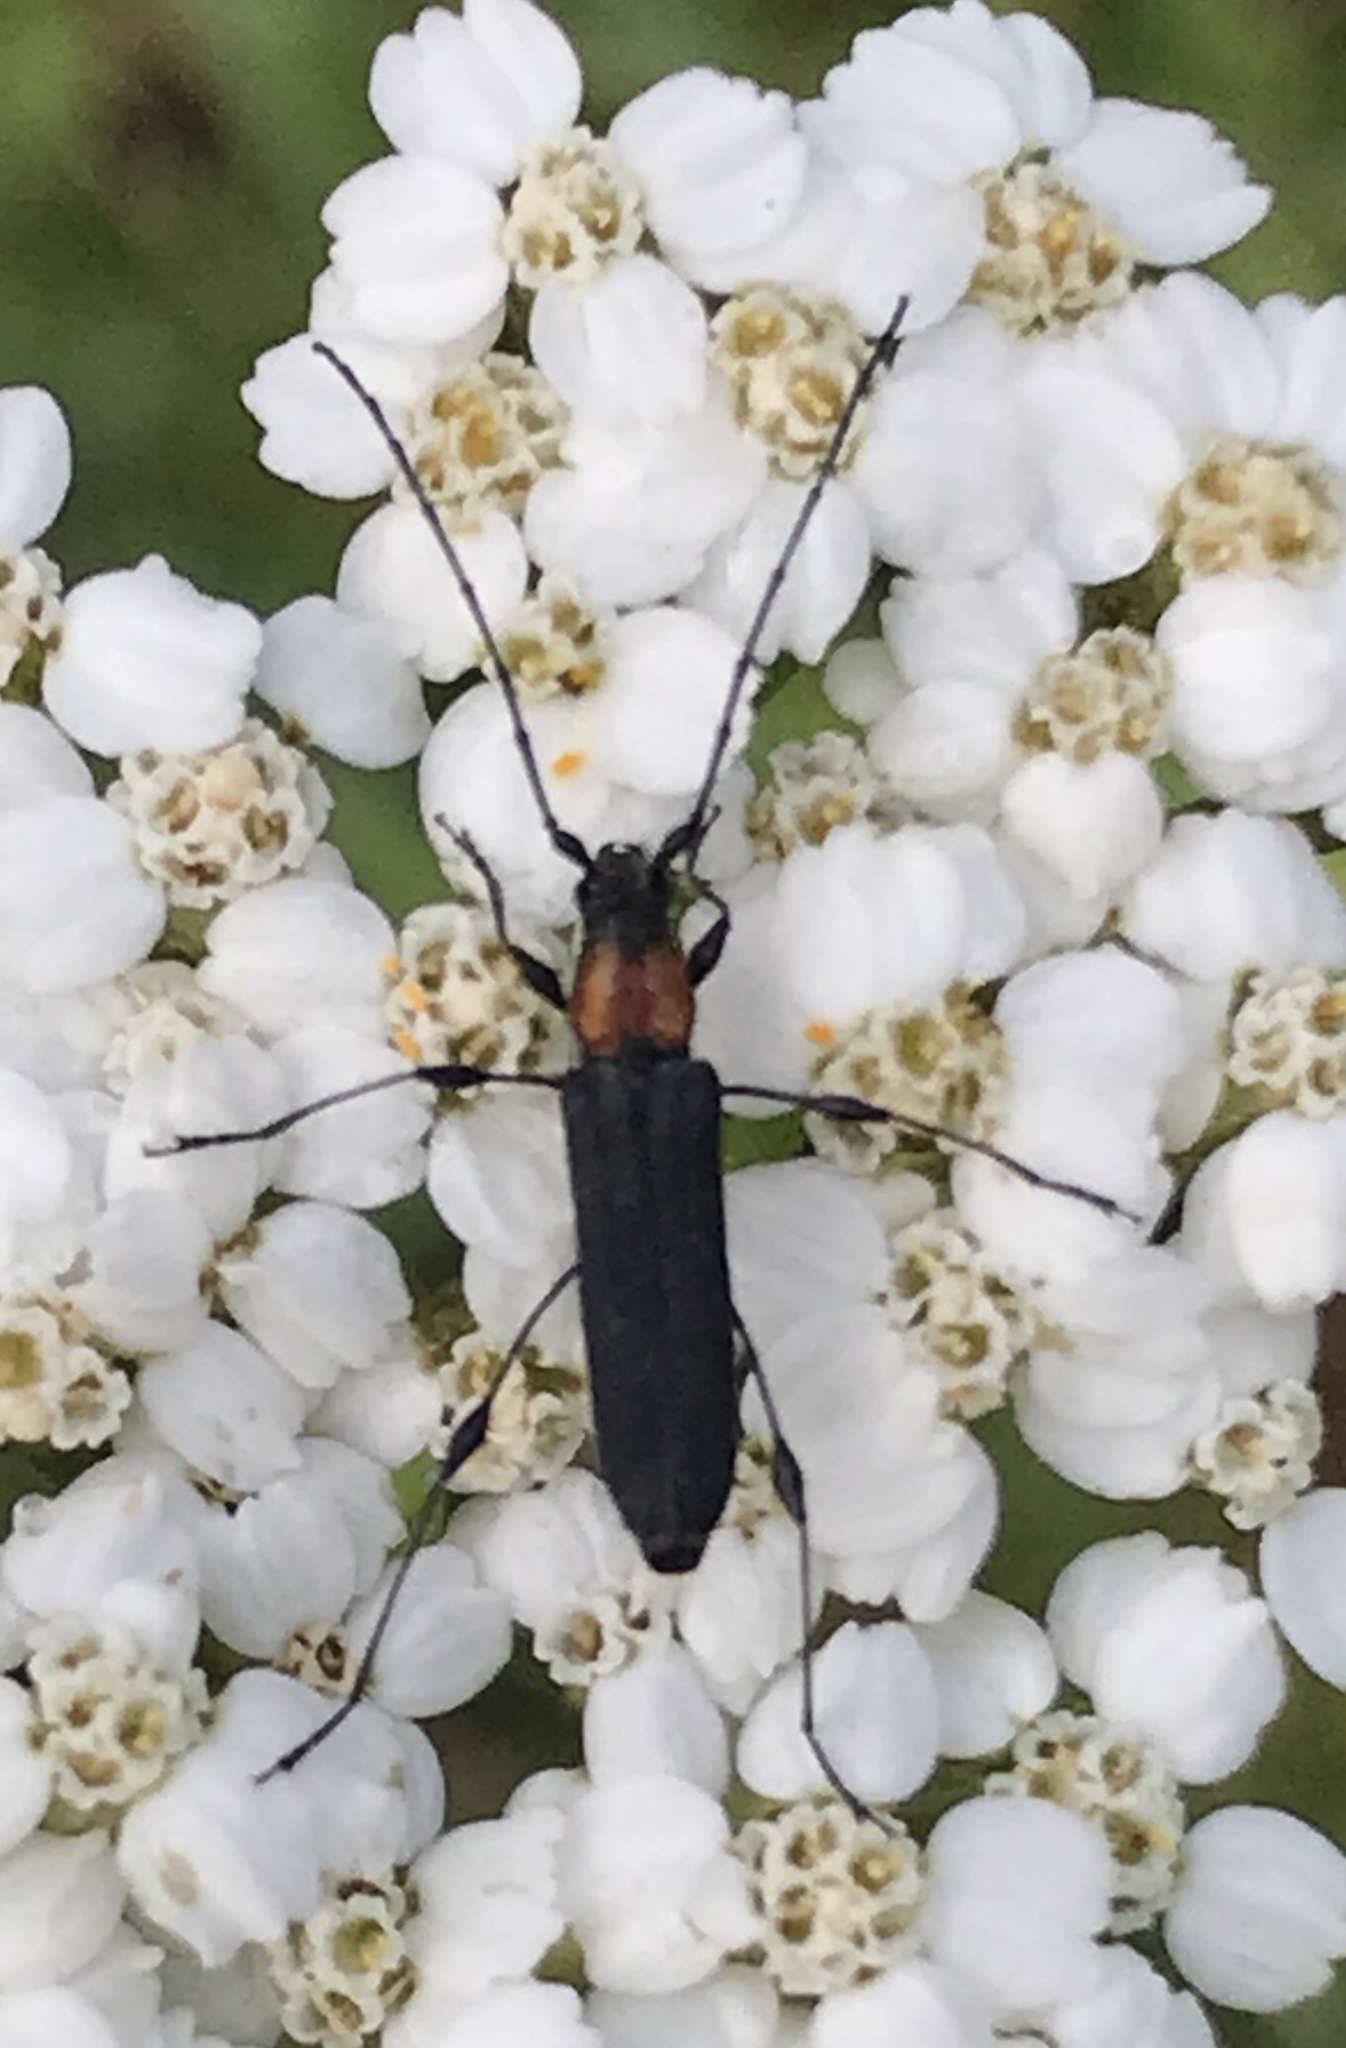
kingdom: Animalia
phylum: Arthropoda
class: Insecta
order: Coleoptera
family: Cerambycidae
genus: Rhopalophora
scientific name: Rhopalophora meeskei
